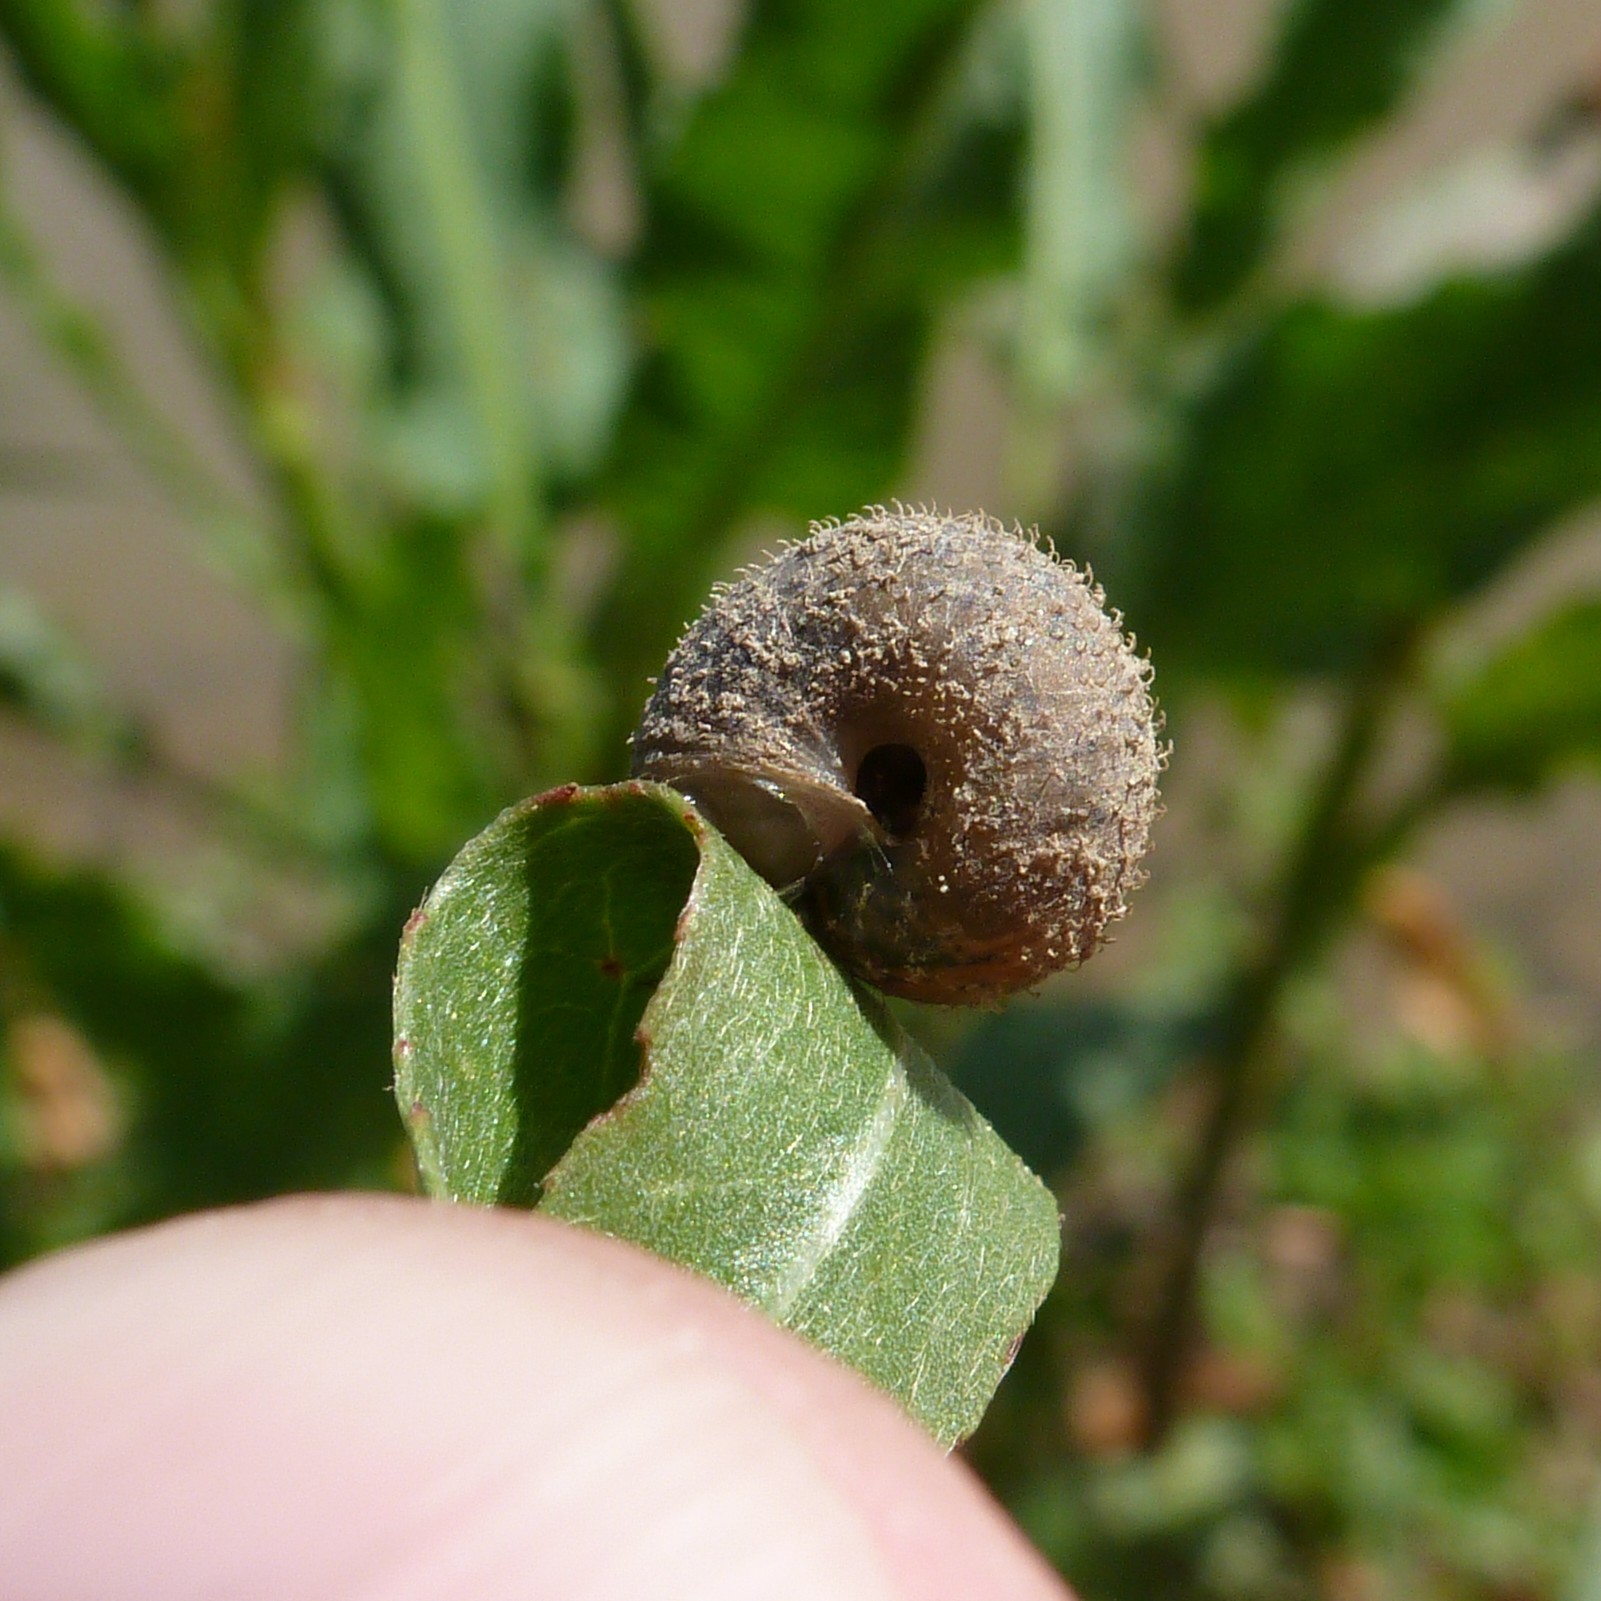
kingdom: Animalia
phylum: Mollusca
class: Gastropoda
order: Stylommatophora
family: Hygromiidae
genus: Euomphalia
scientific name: Euomphalia aristata
